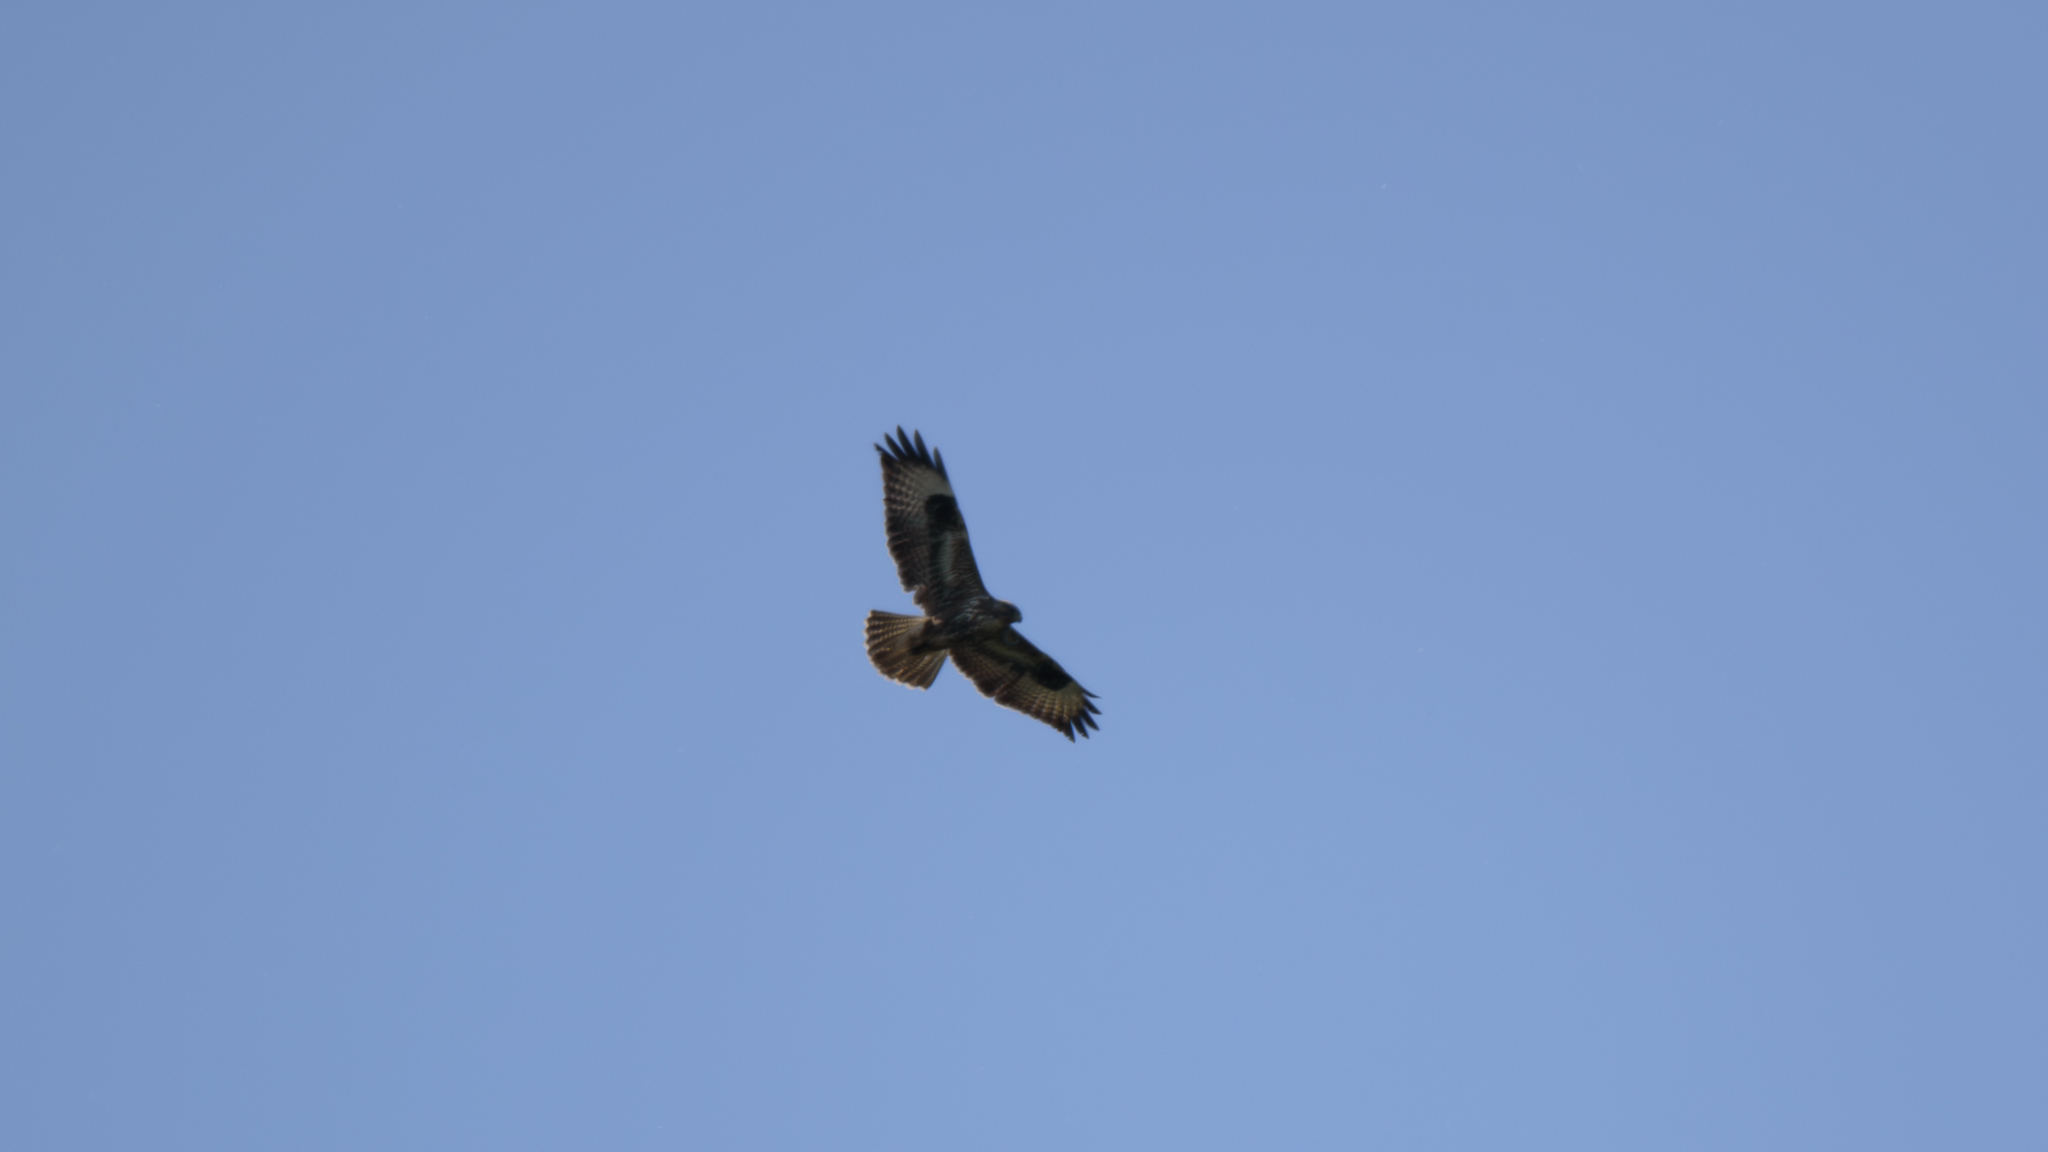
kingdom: Animalia
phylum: Chordata
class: Aves
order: Accipitriformes
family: Accipitridae
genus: Buteo
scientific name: Buteo buteo
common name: Common buzzard
